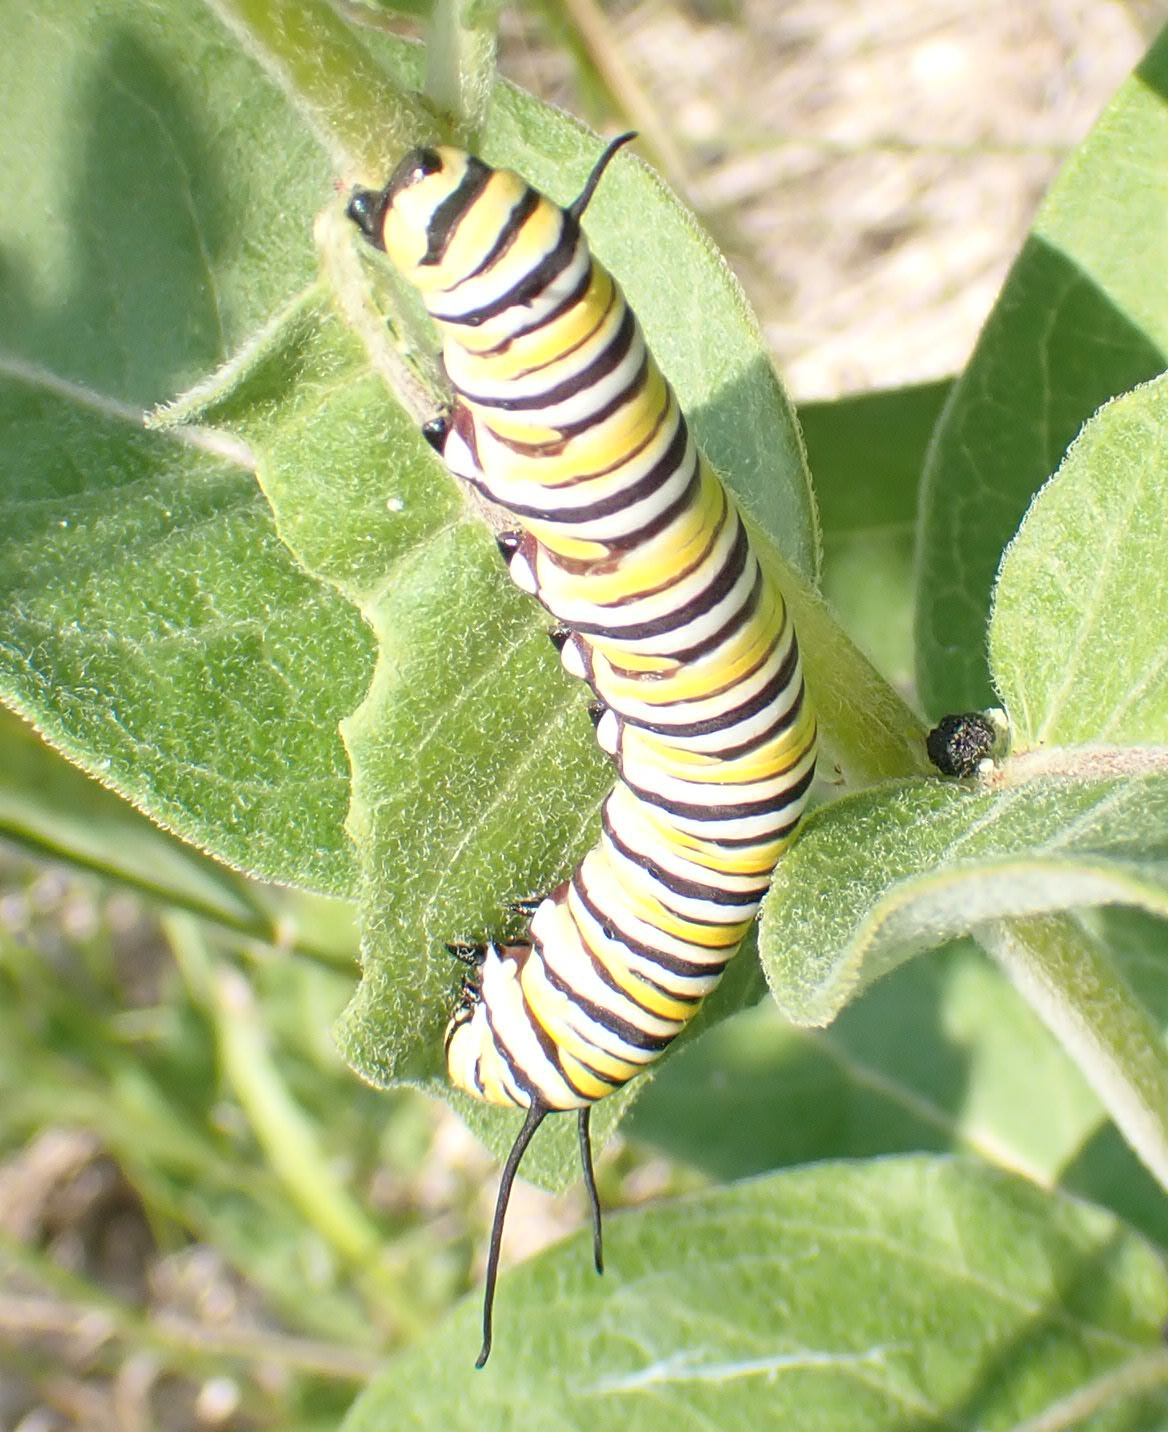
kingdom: Animalia
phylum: Arthropoda
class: Insecta
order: Lepidoptera
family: Nymphalidae
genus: Danaus
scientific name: Danaus plexippus
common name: Monarch
